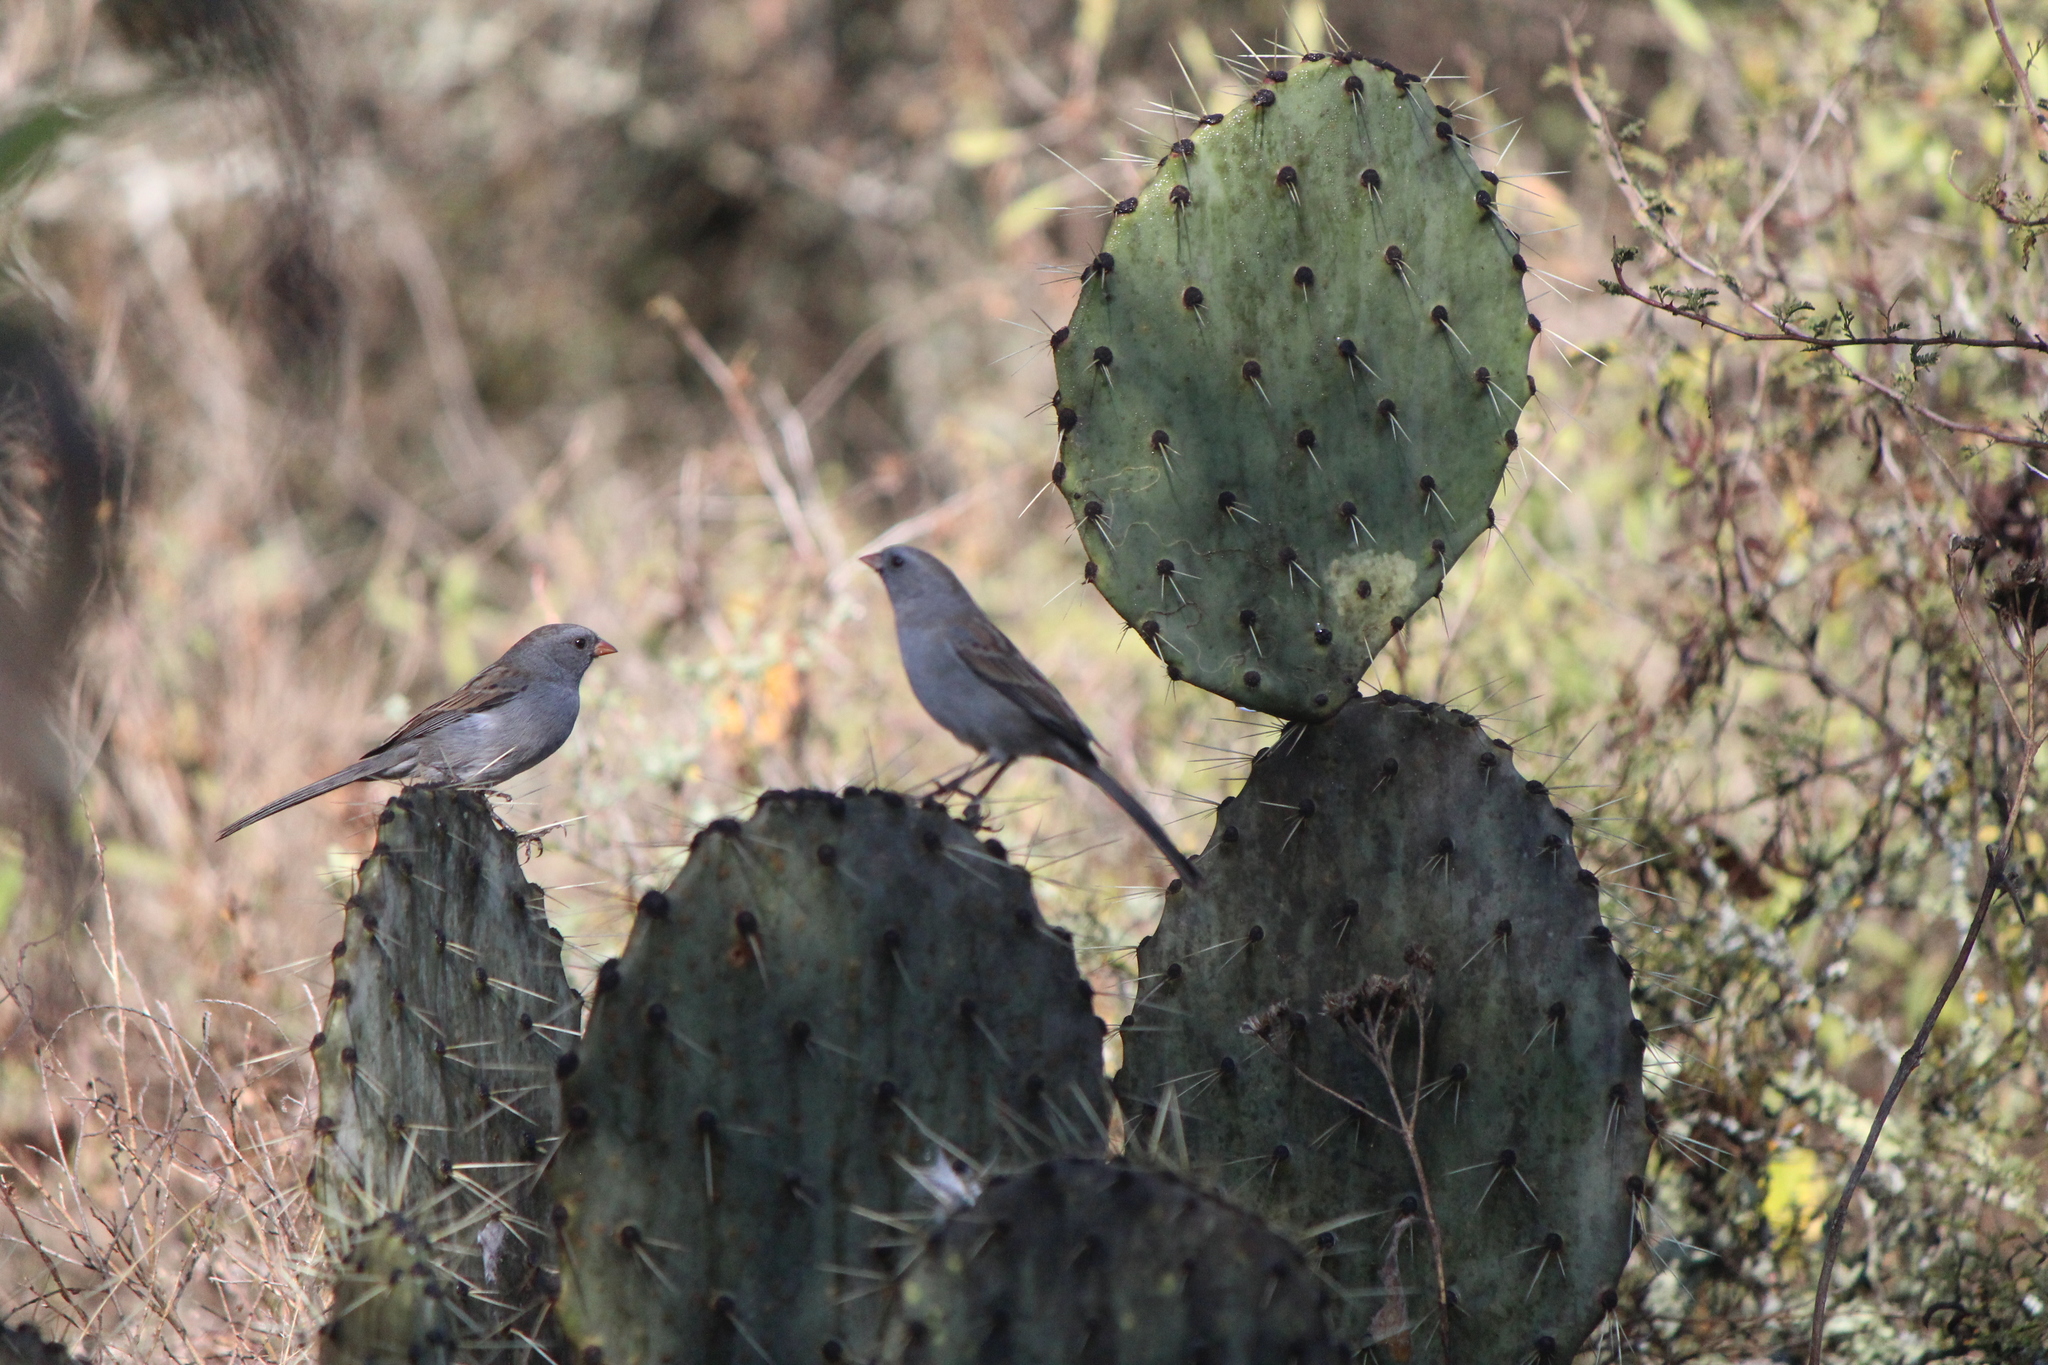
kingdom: Animalia
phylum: Chordata
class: Aves
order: Passeriformes
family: Passerellidae
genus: Spizella
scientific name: Spizella atrogularis
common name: Black-chinned sparrow
